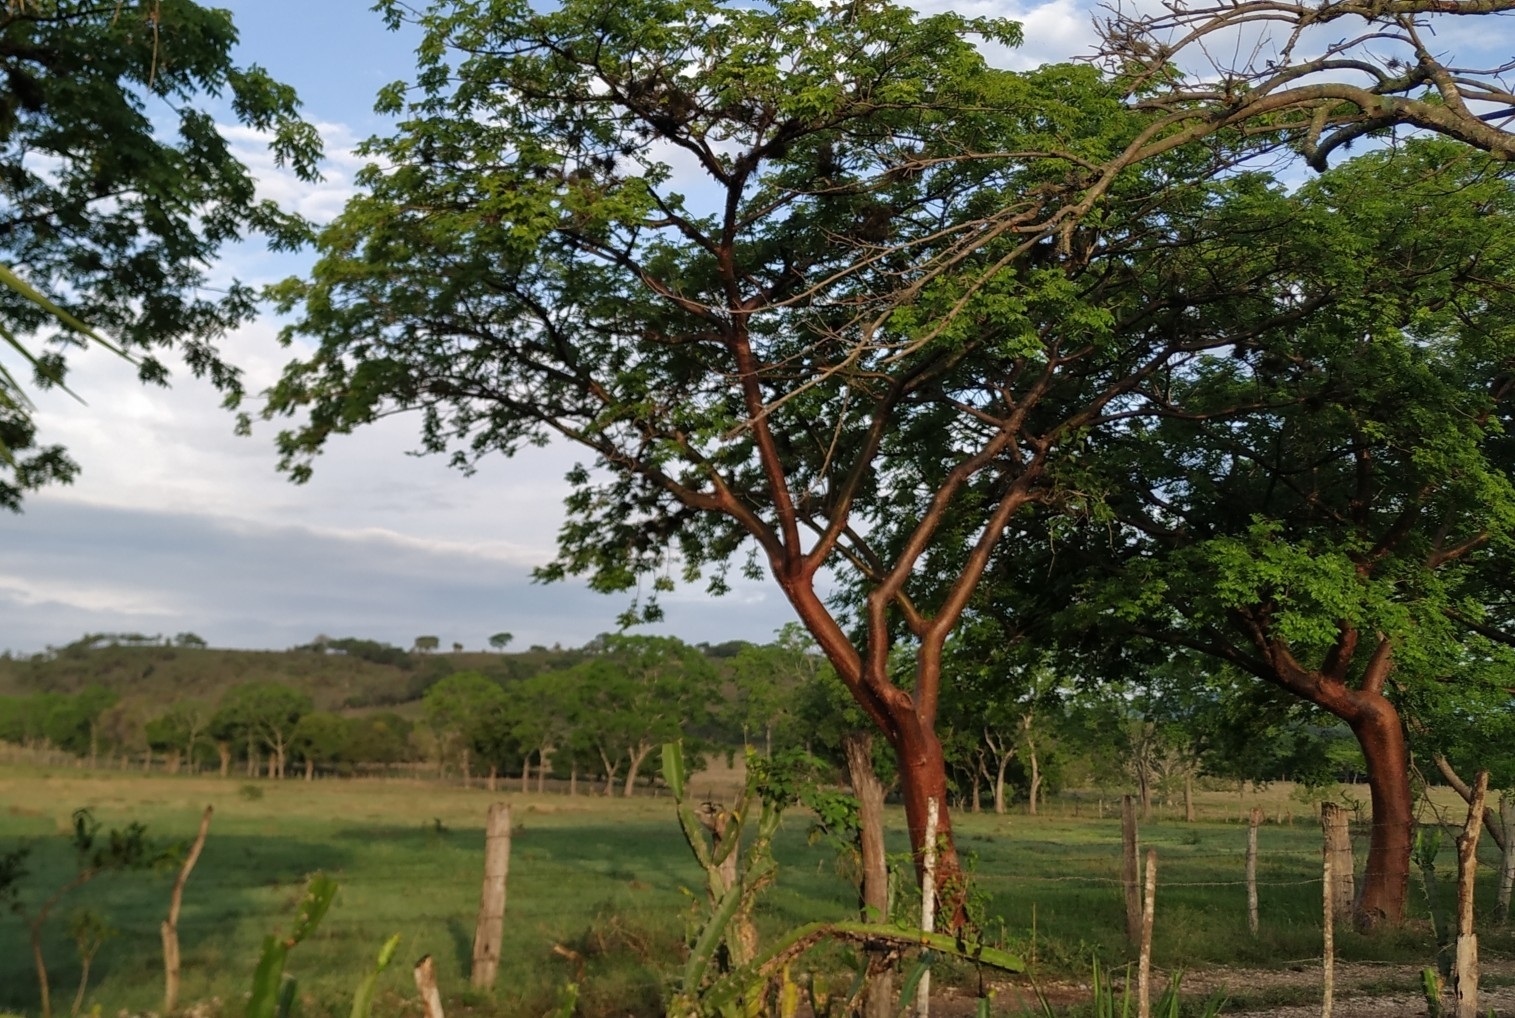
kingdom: Plantae
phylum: Tracheophyta
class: Magnoliopsida
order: Sapindales
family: Burseraceae
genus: Bursera
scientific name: Bursera simaruba
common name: Turpentine tree
